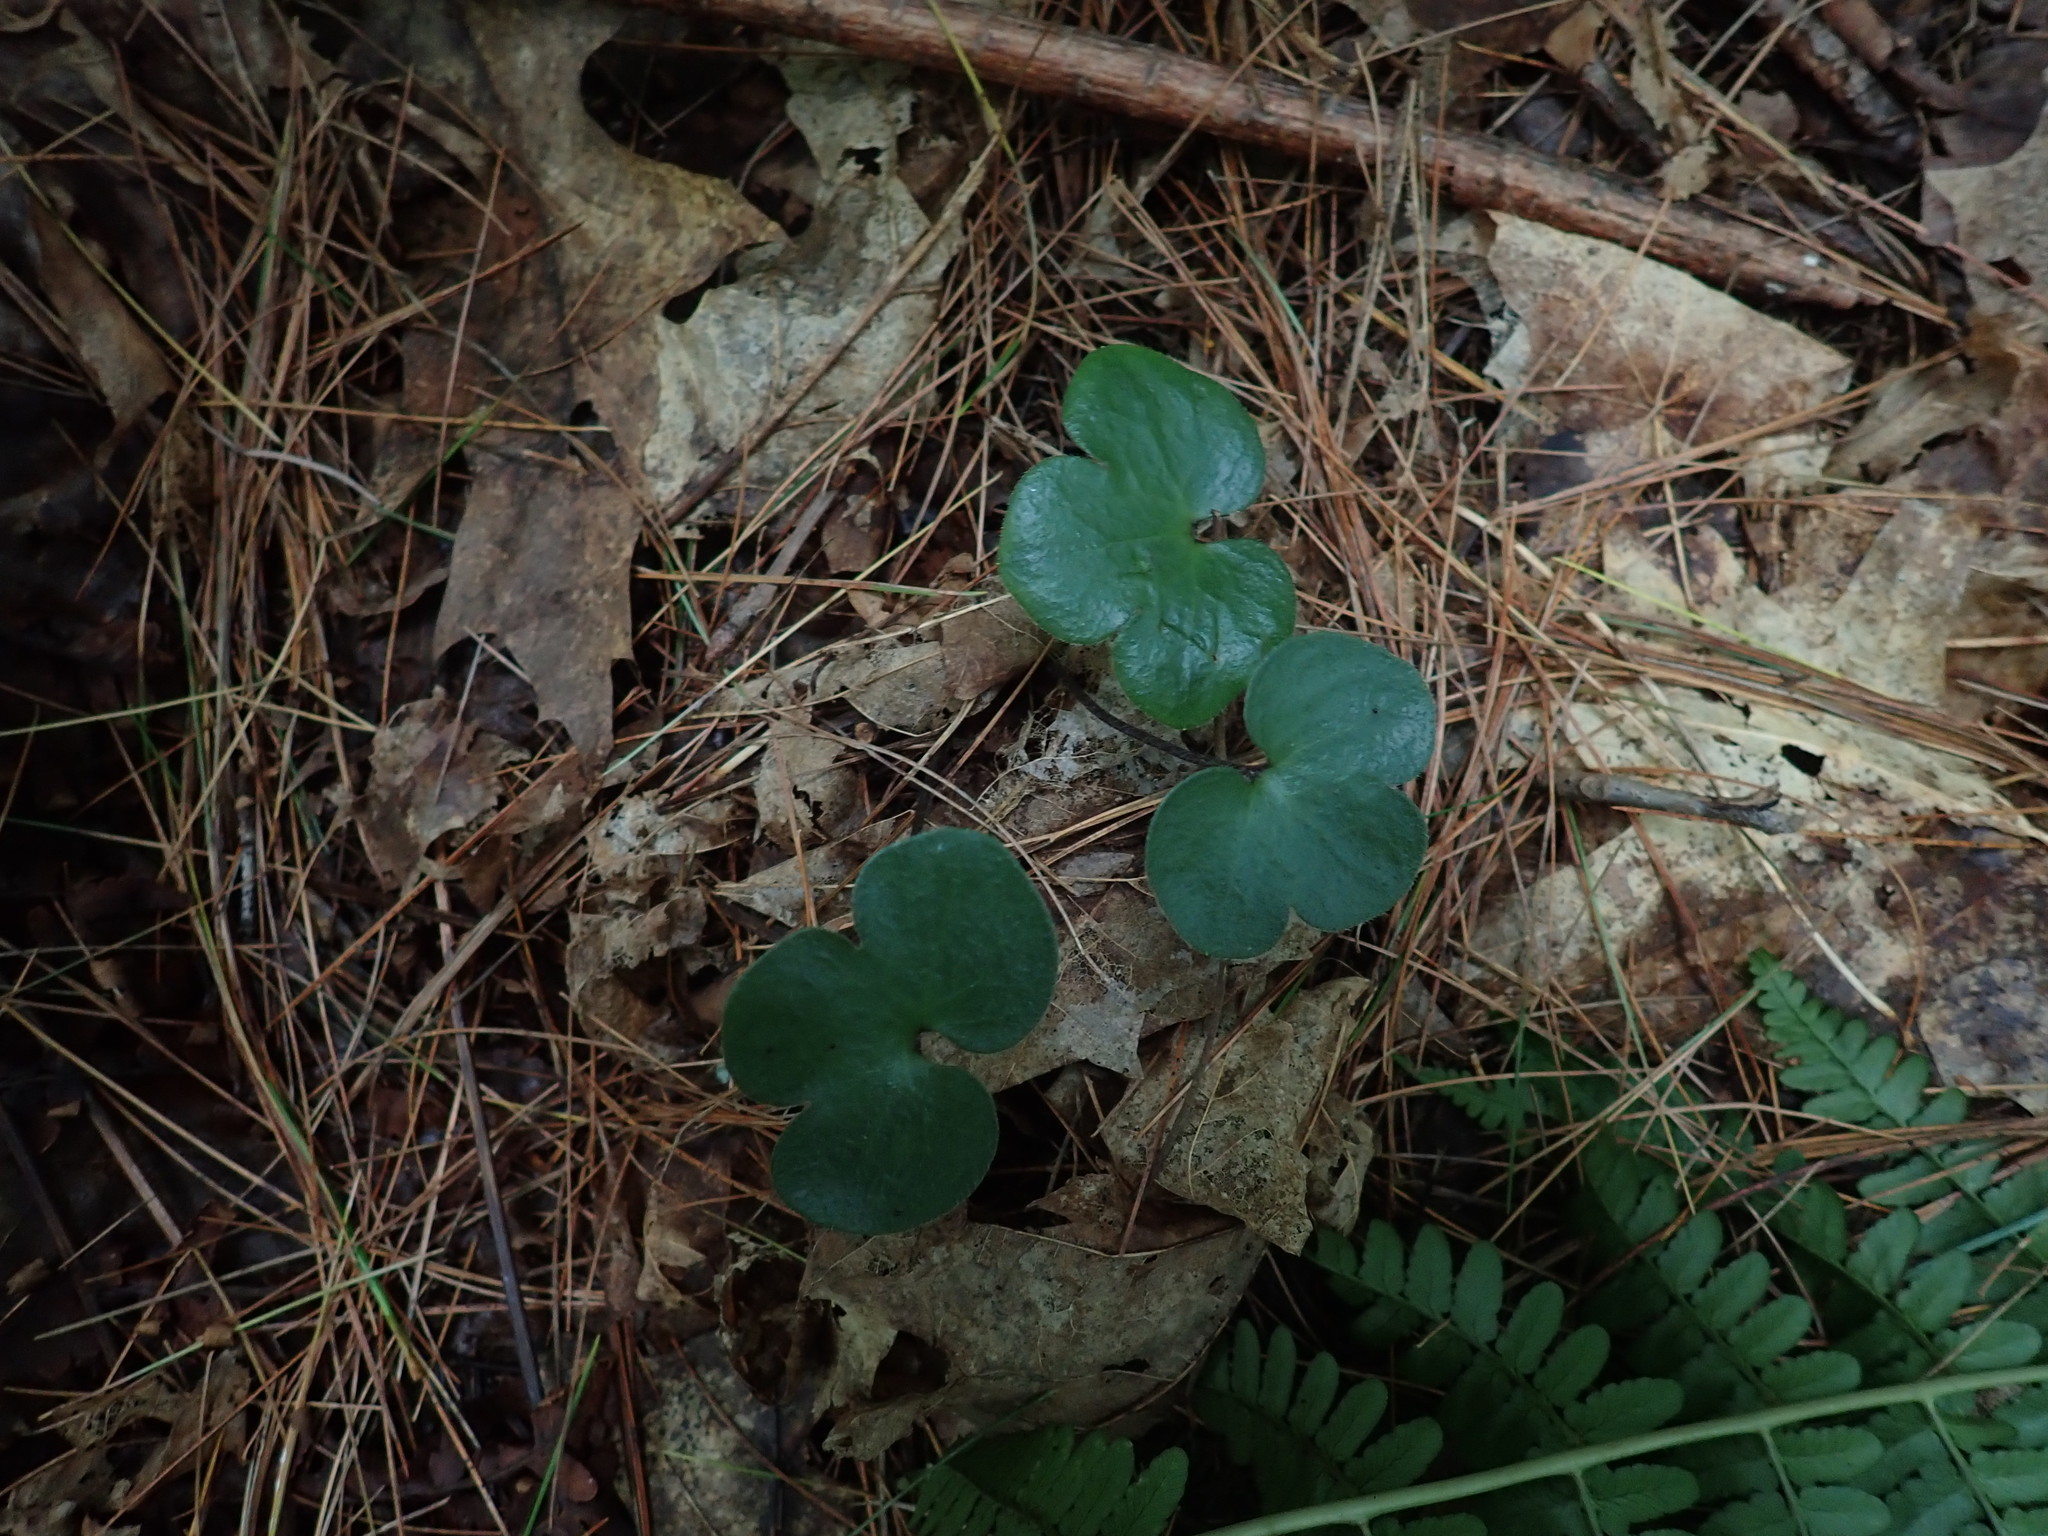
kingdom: Plantae
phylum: Tracheophyta
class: Magnoliopsida
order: Ranunculales
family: Ranunculaceae
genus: Hepatica
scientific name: Hepatica americana
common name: American hepatica
